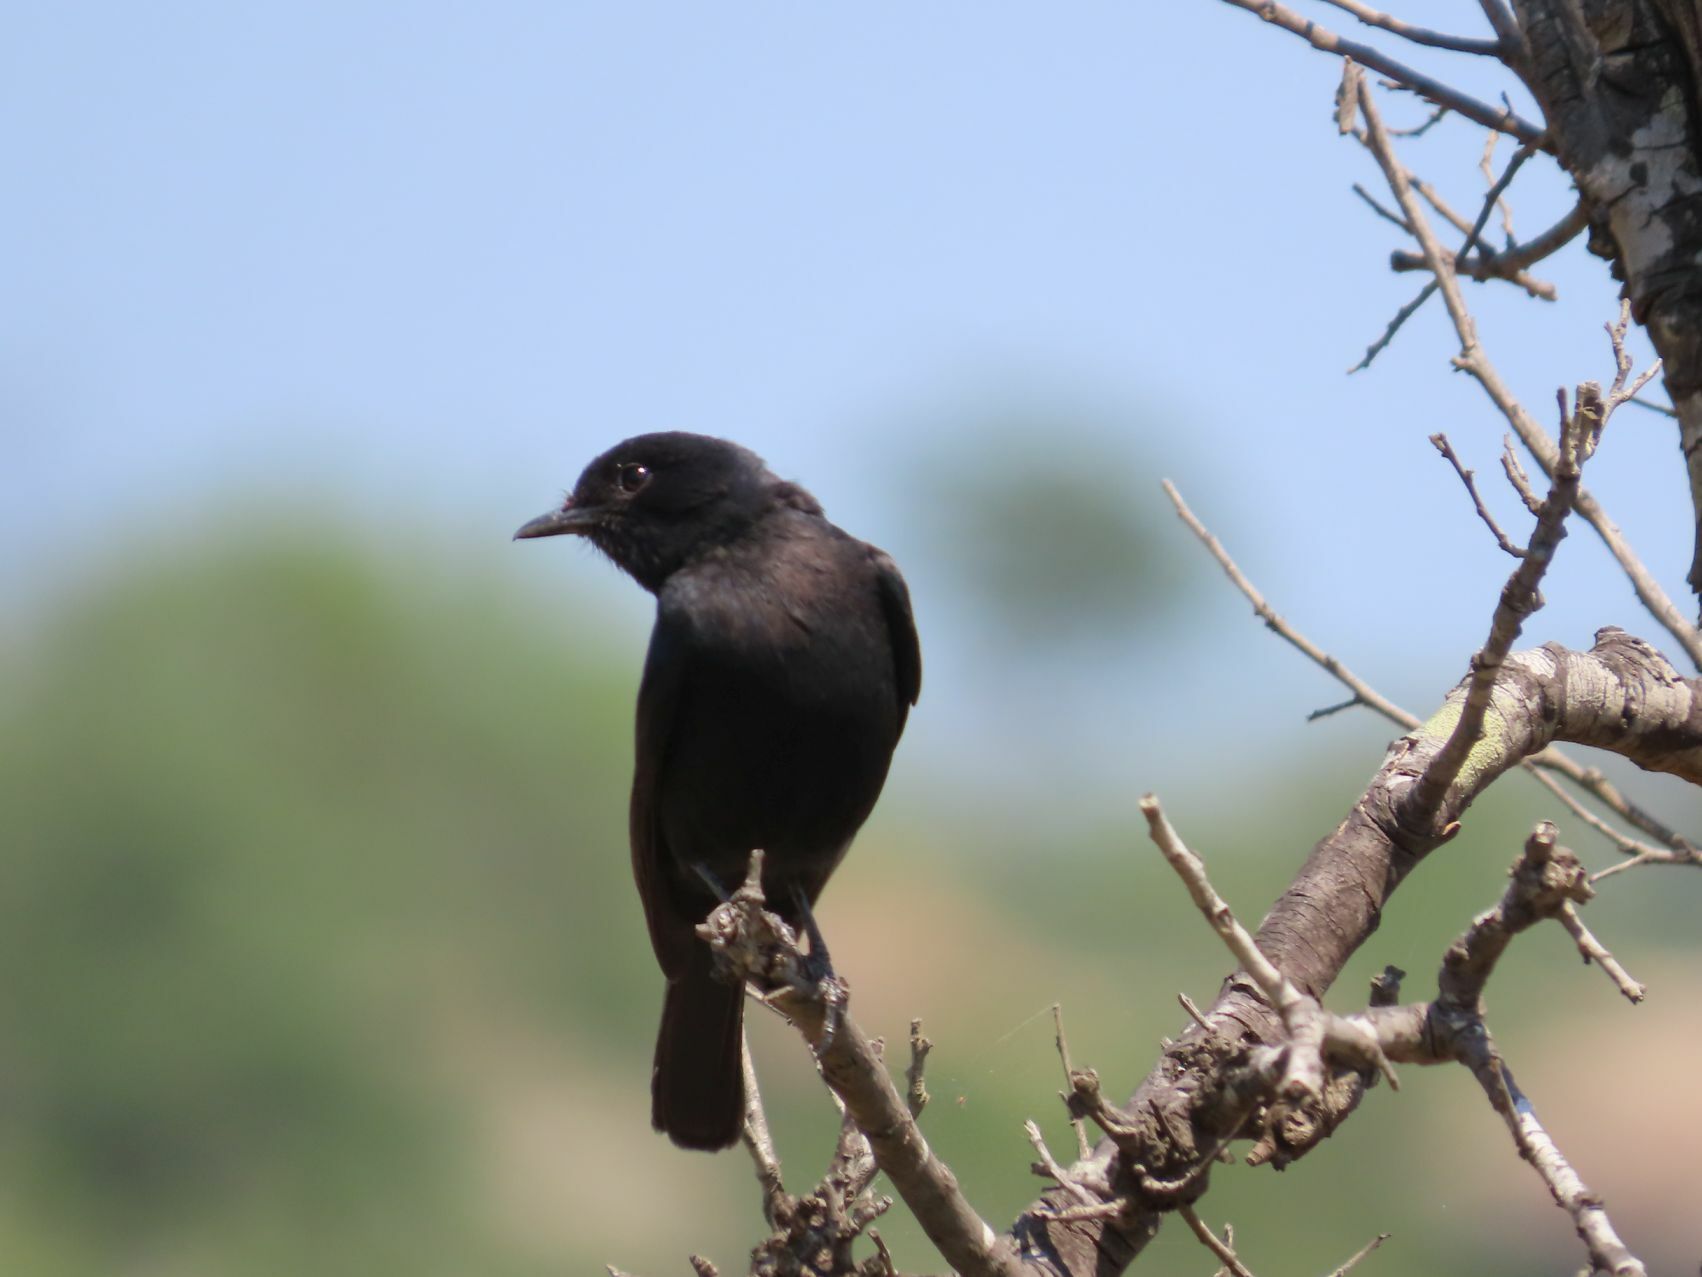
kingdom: Animalia
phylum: Chordata
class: Aves
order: Passeriformes
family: Muscicapidae
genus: Melaenornis
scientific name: Melaenornis pammelaina
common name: Southern black flycatcher
